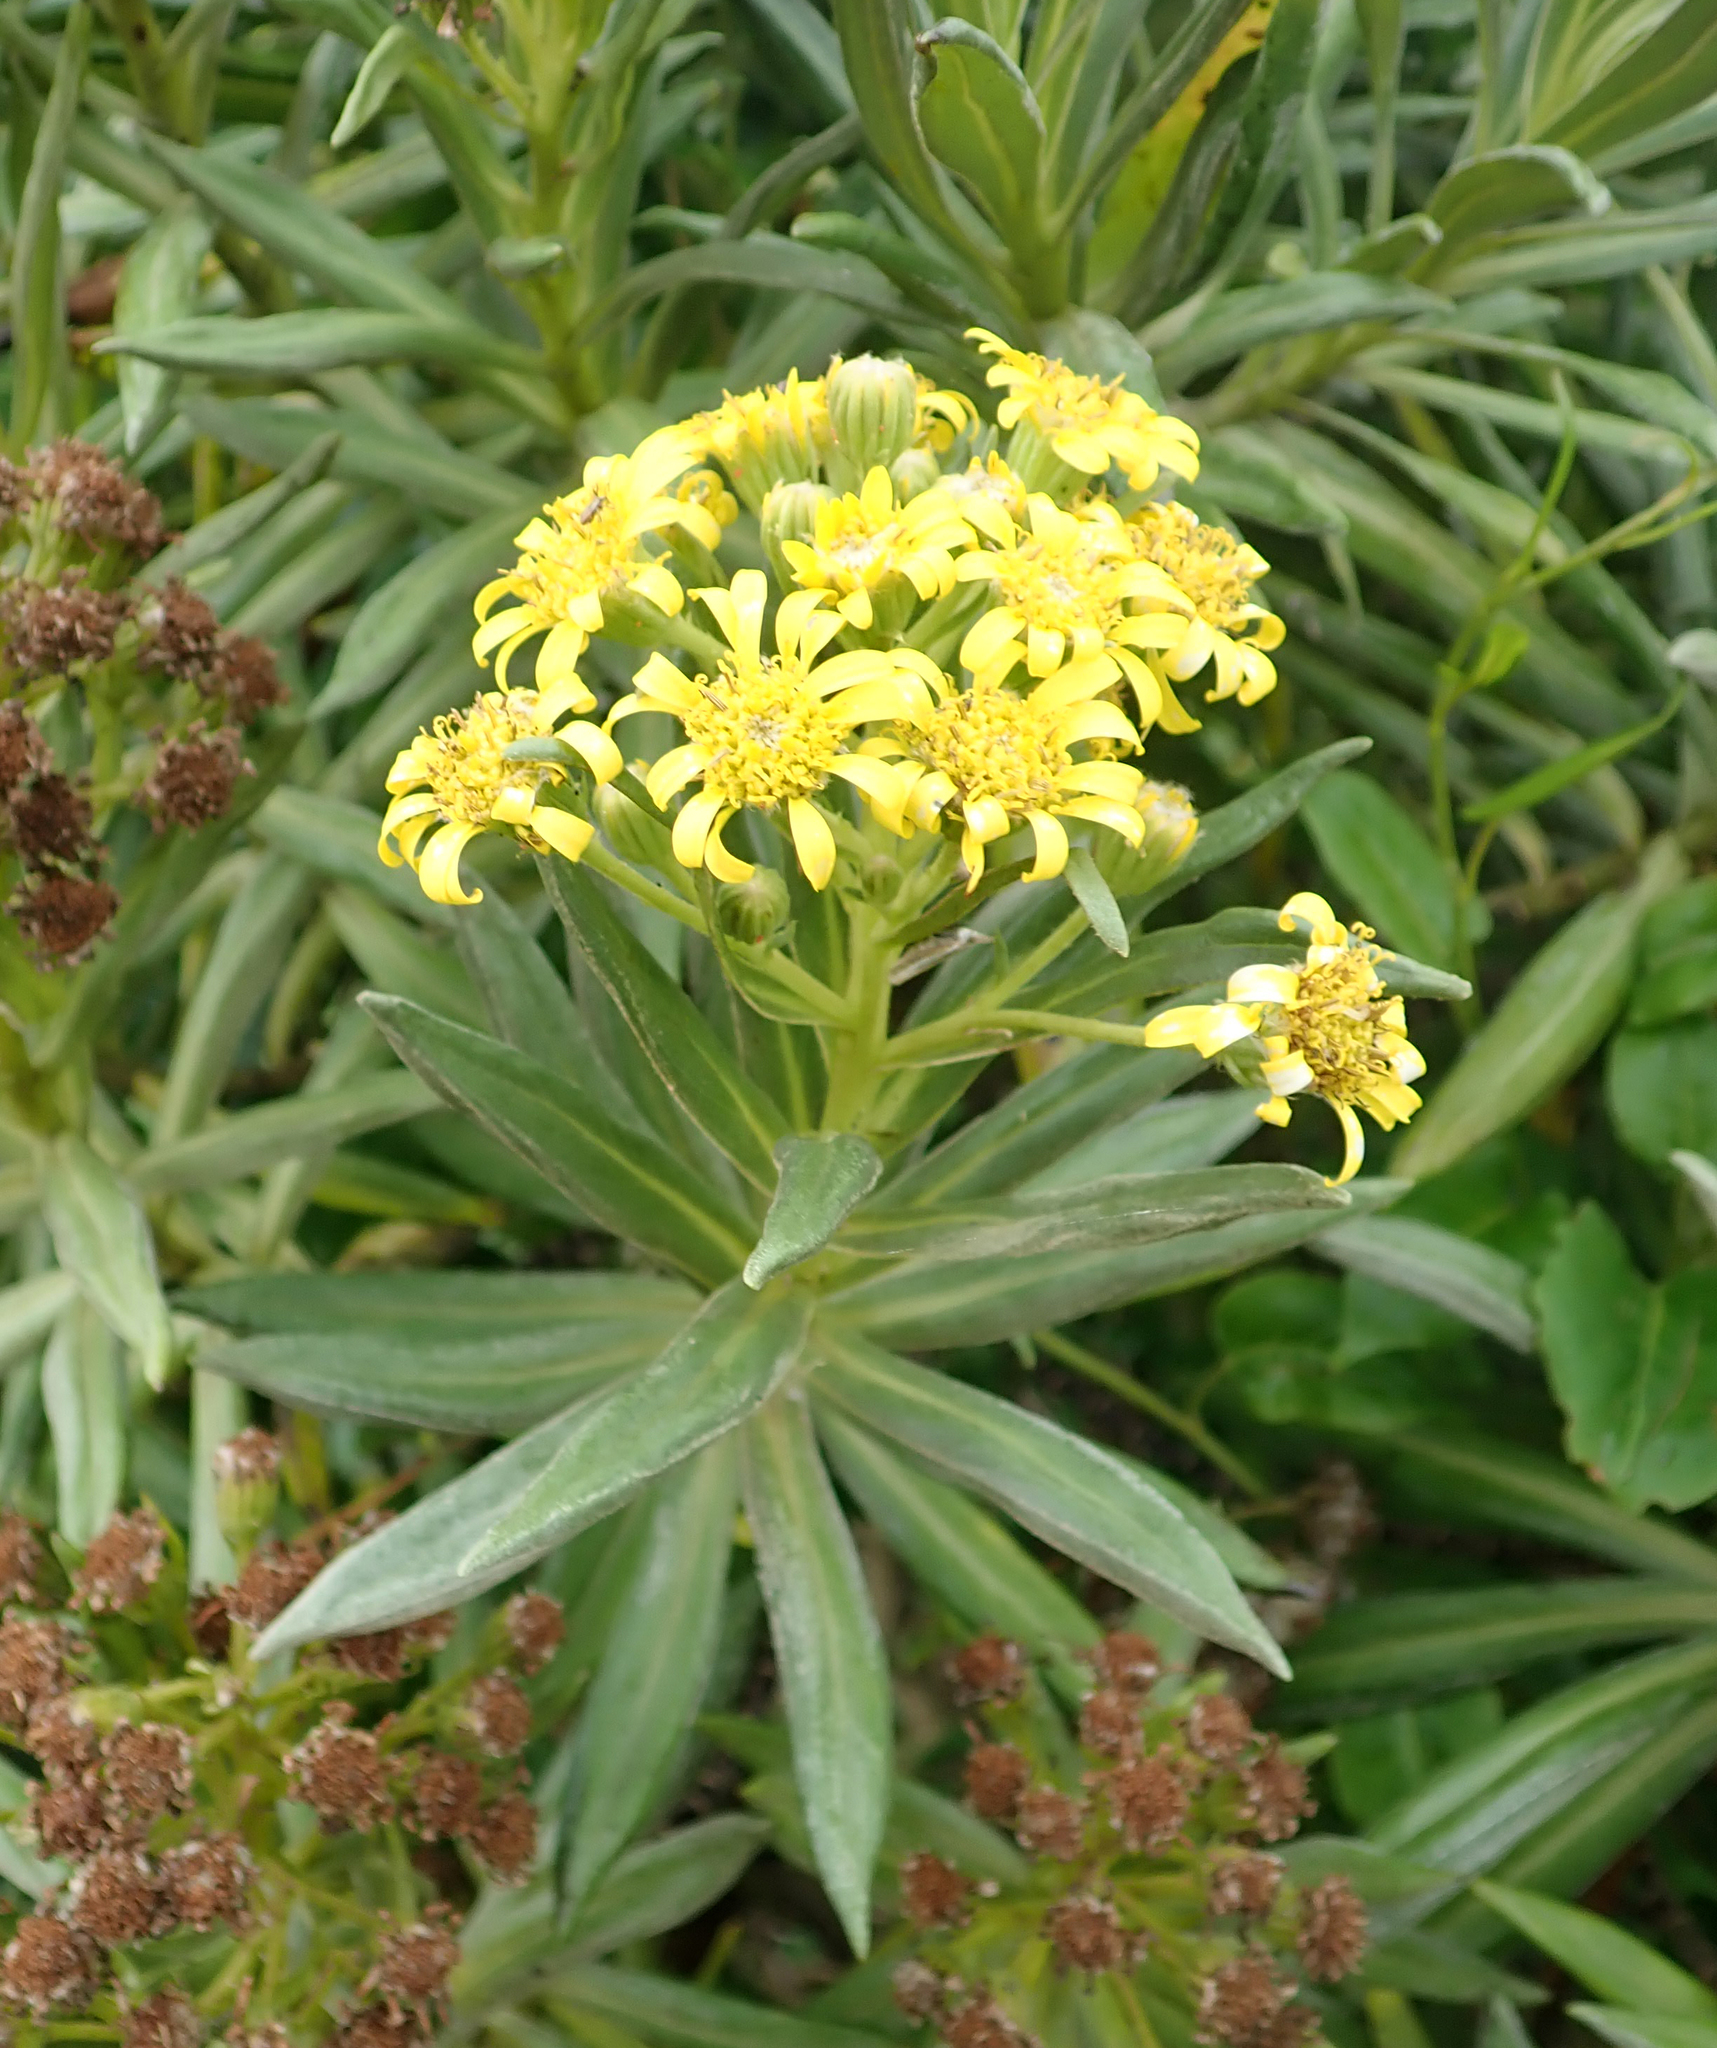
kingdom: Plantae
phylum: Tracheophyta
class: Magnoliopsida
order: Asterales
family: Asteraceae
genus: Brachyglottis
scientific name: Brachyglottis huntii
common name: Chatham island christmas tree
